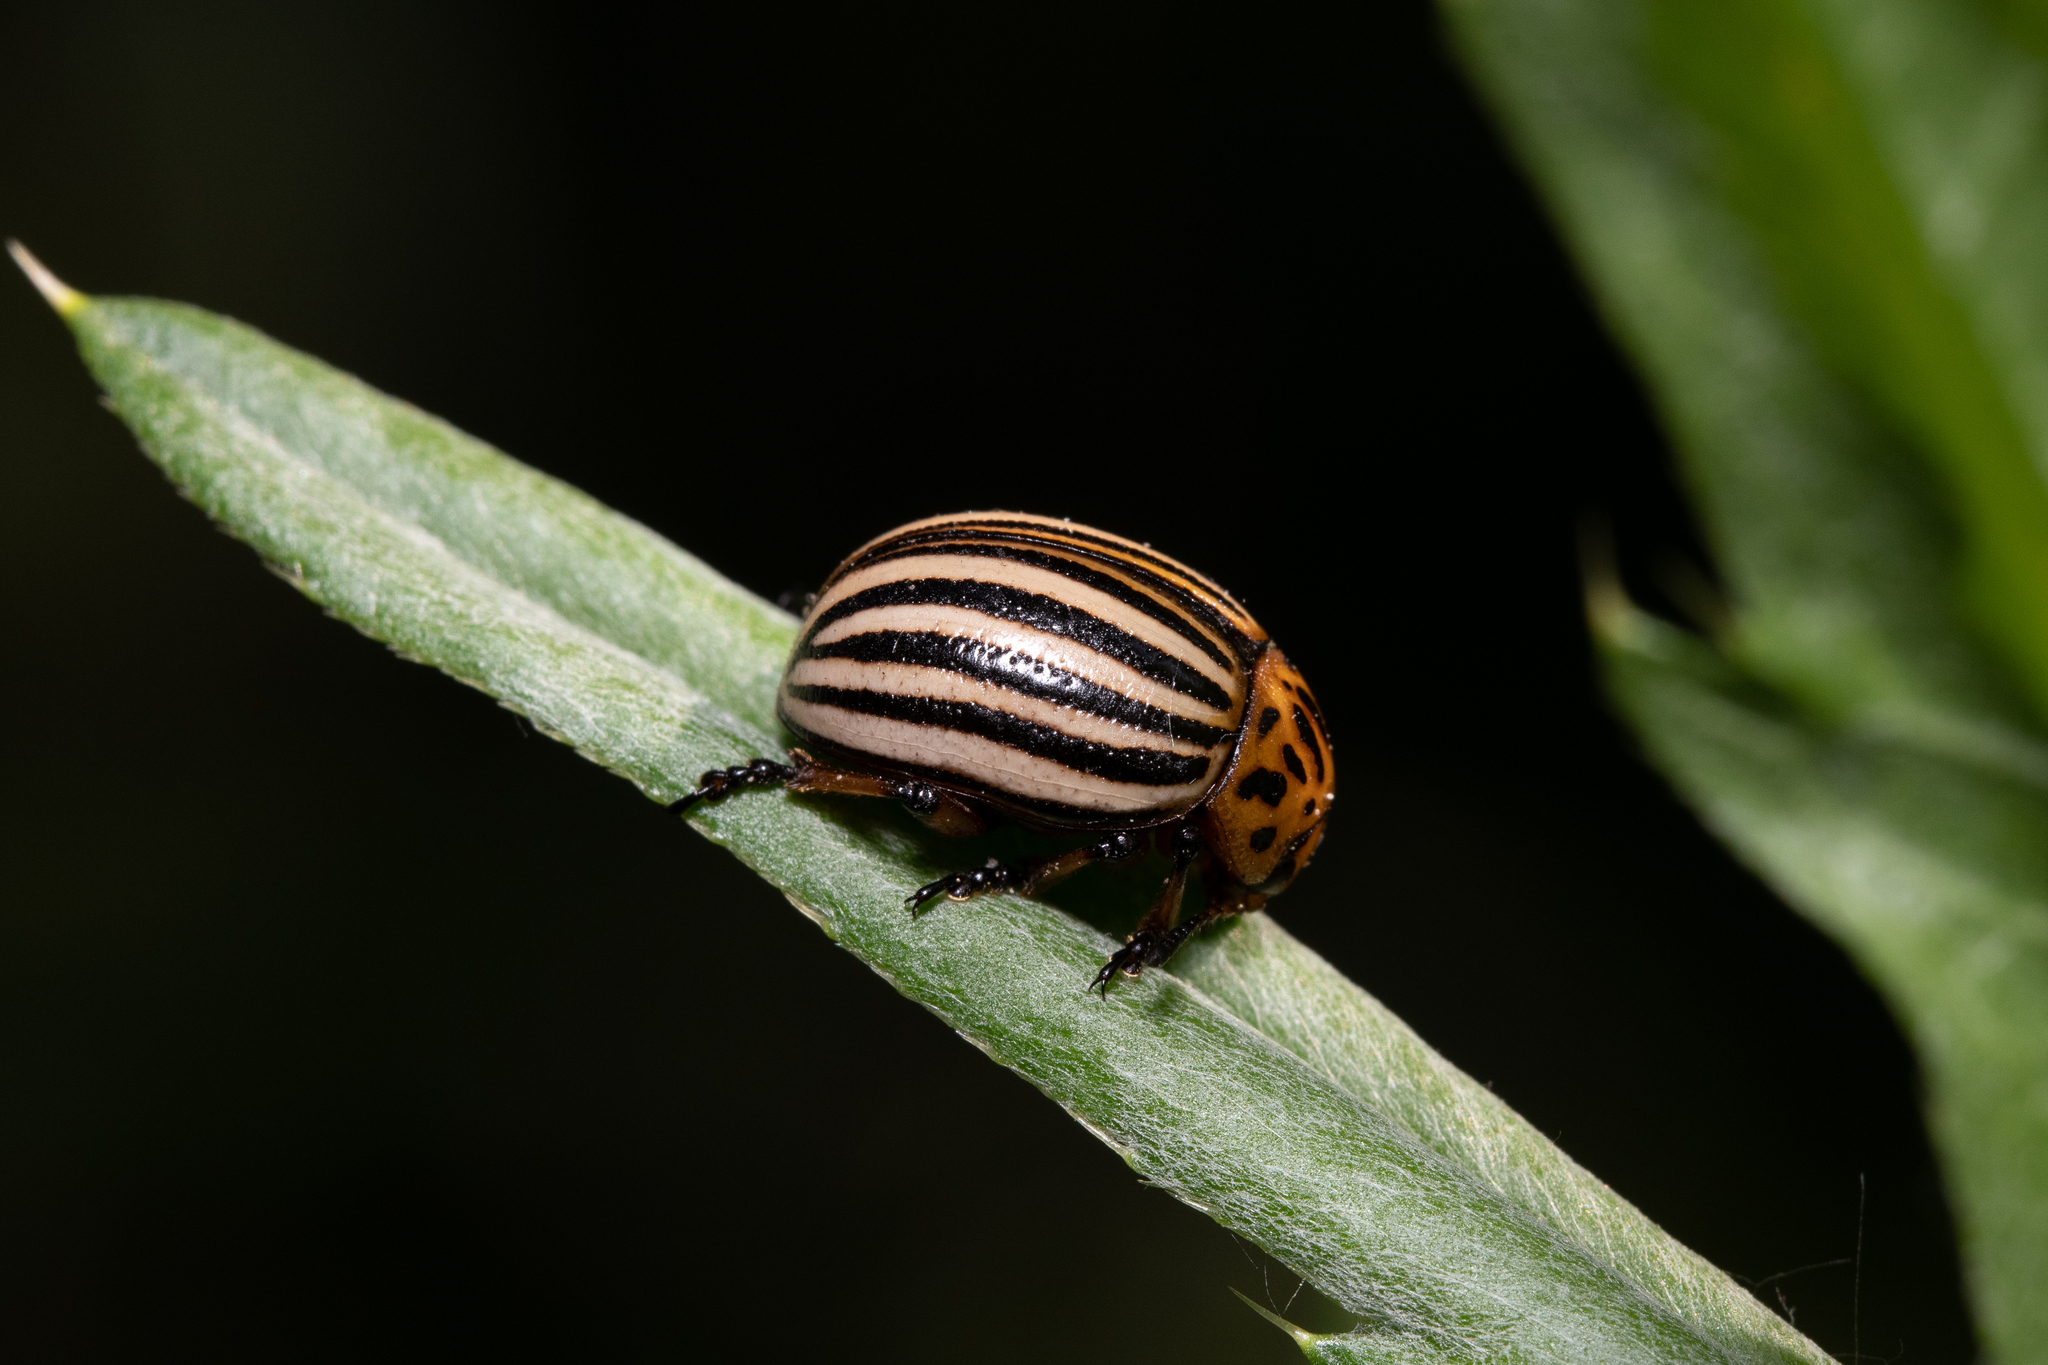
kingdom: Animalia
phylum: Arthropoda
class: Insecta
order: Coleoptera
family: Chrysomelidae
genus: Leptinotarsa
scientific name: Leptinotarsa decemlineata
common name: Colorado potato beetle
